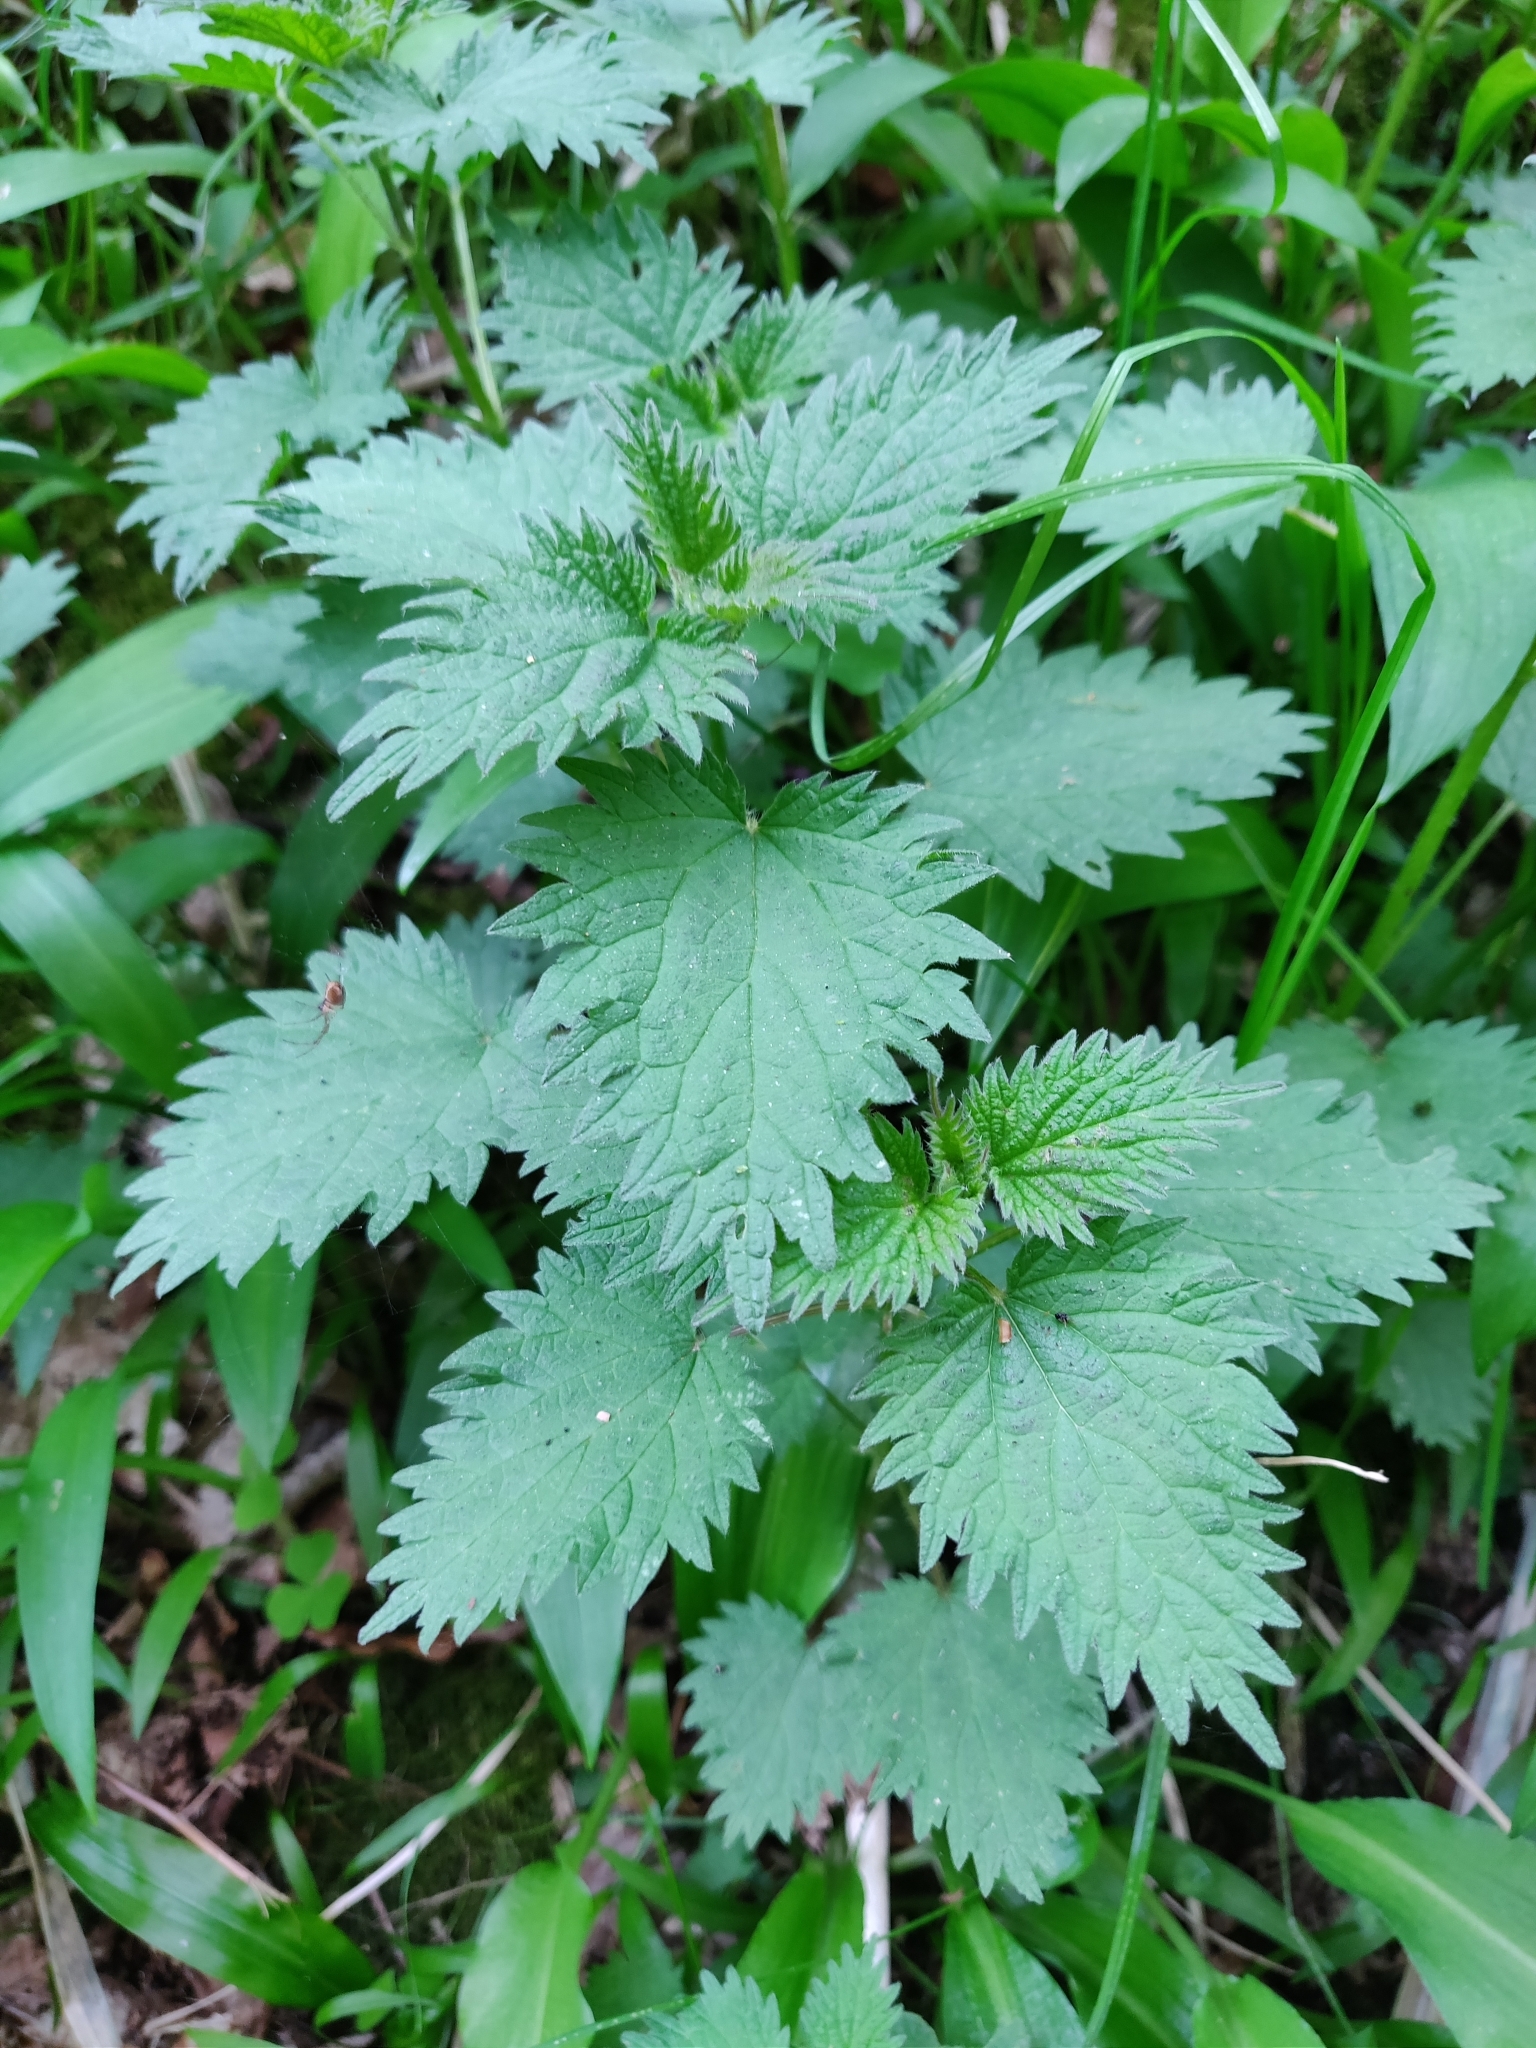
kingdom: Plantae
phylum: Tracheophyta
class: Magnoliopsida
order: Rosales
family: Urticaceae
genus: Urtica
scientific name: Urtica dioica
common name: Common nettle
